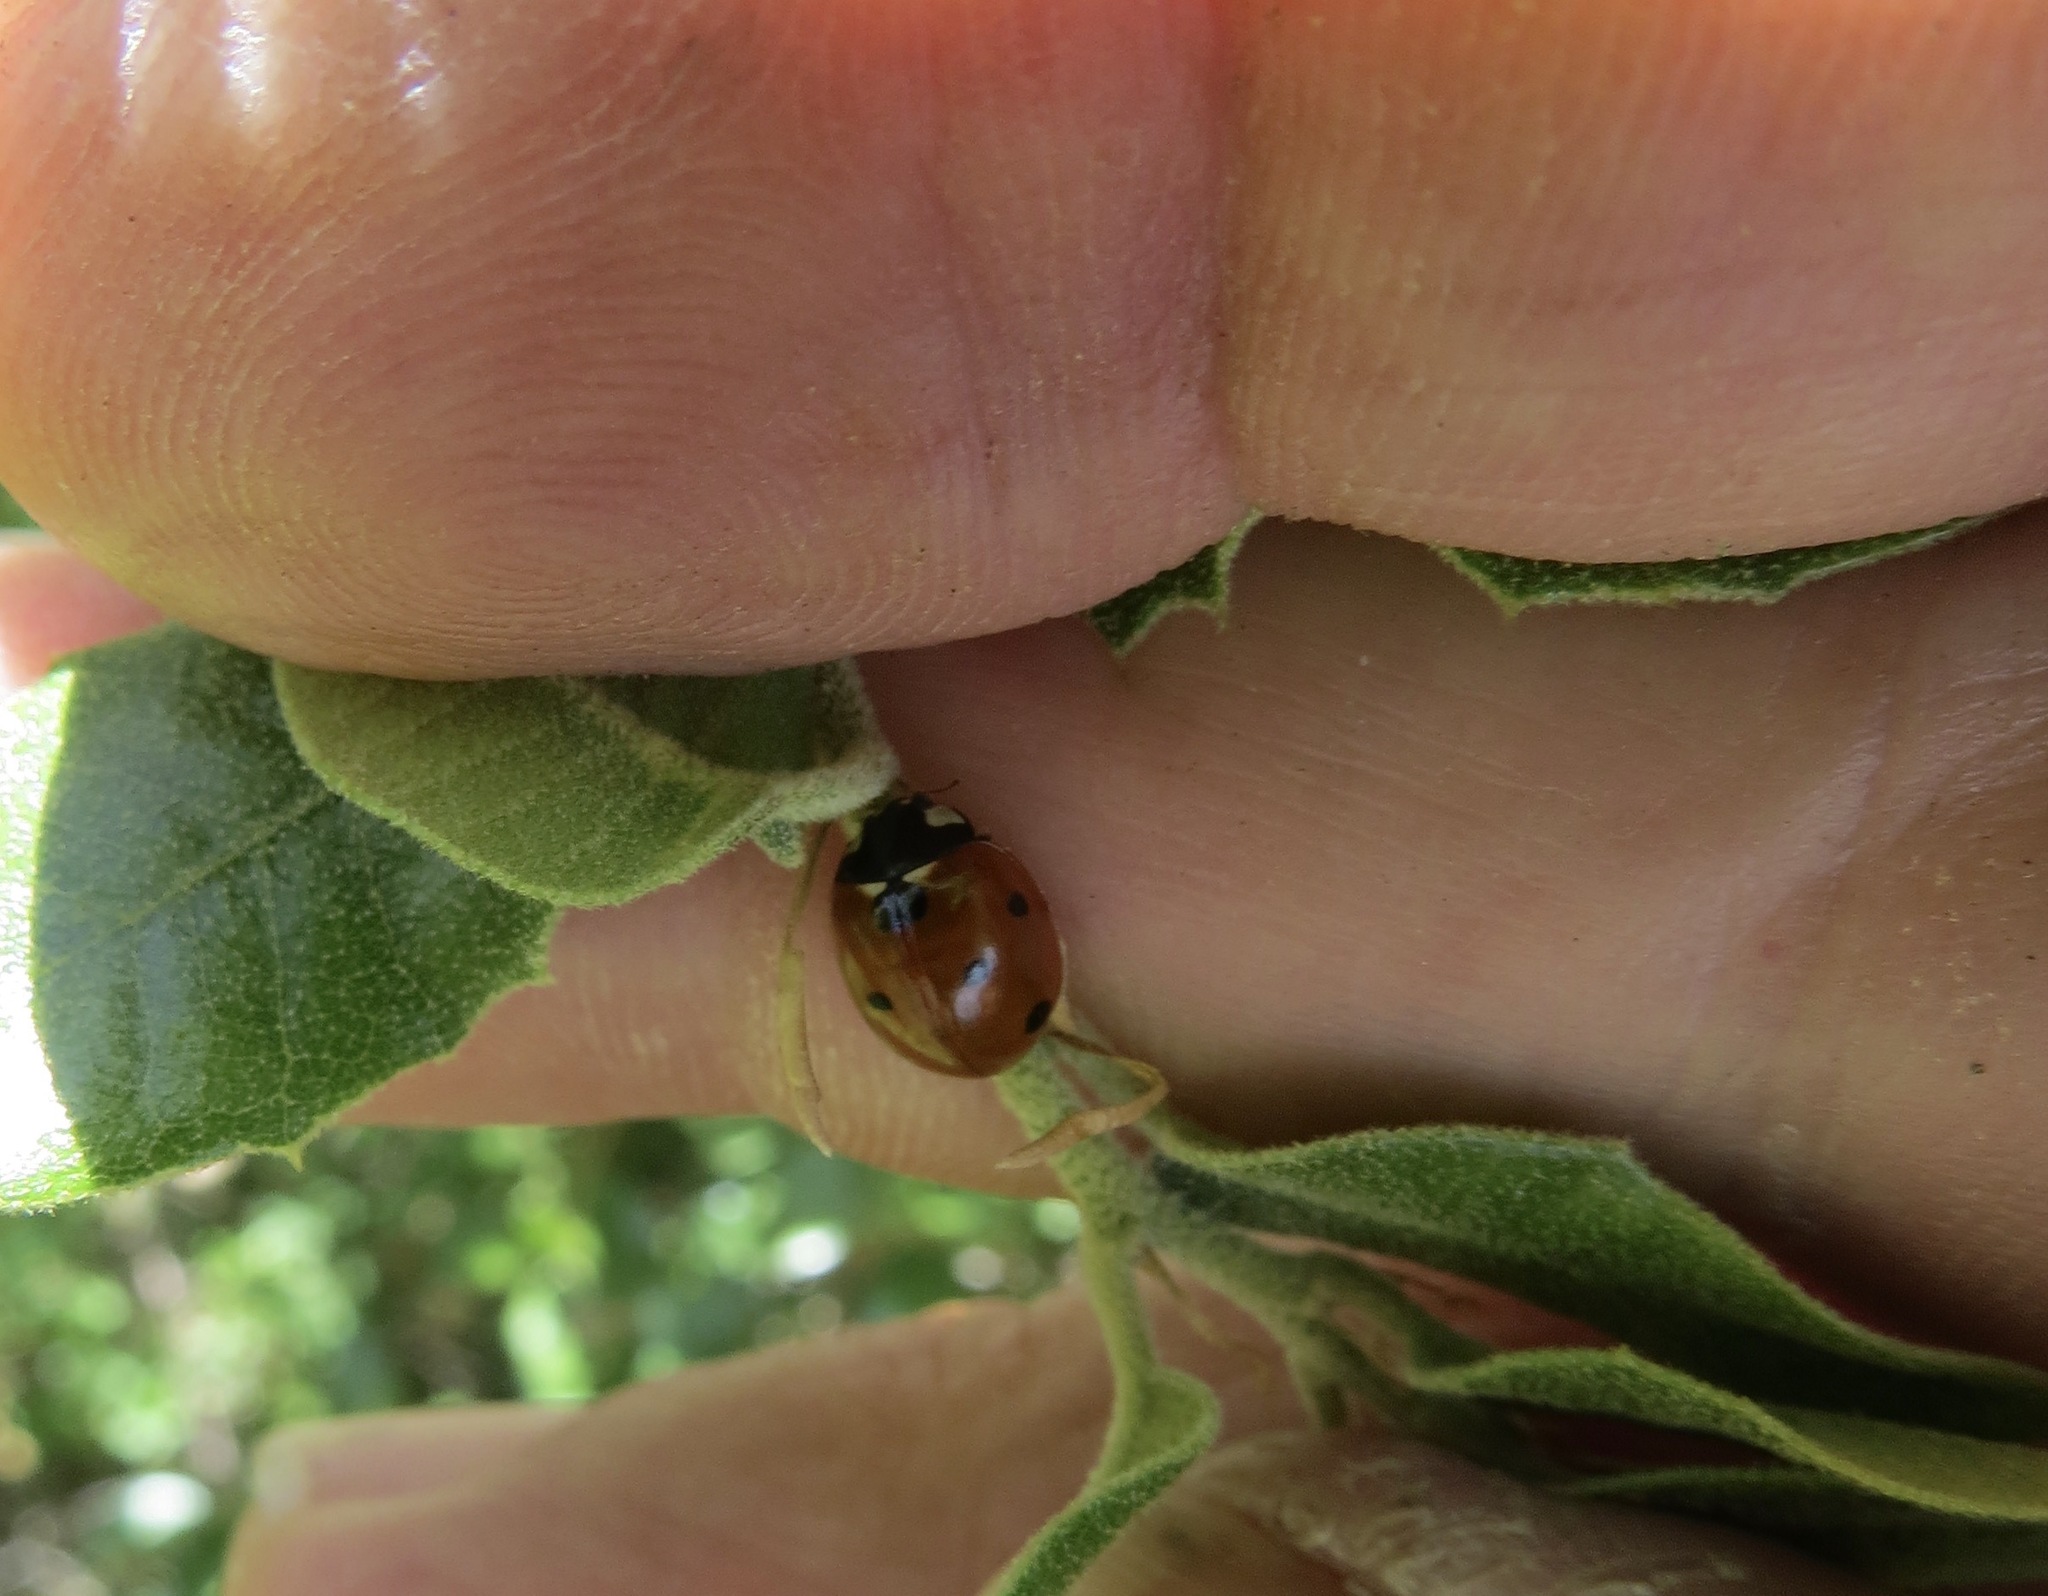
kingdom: Animalia
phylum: Arthropoda
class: Insecta
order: Coleoptera
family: Coccinellidae
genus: Coccinella
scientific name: Coccinella septempunctata
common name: Sevenspotted lady beetle
